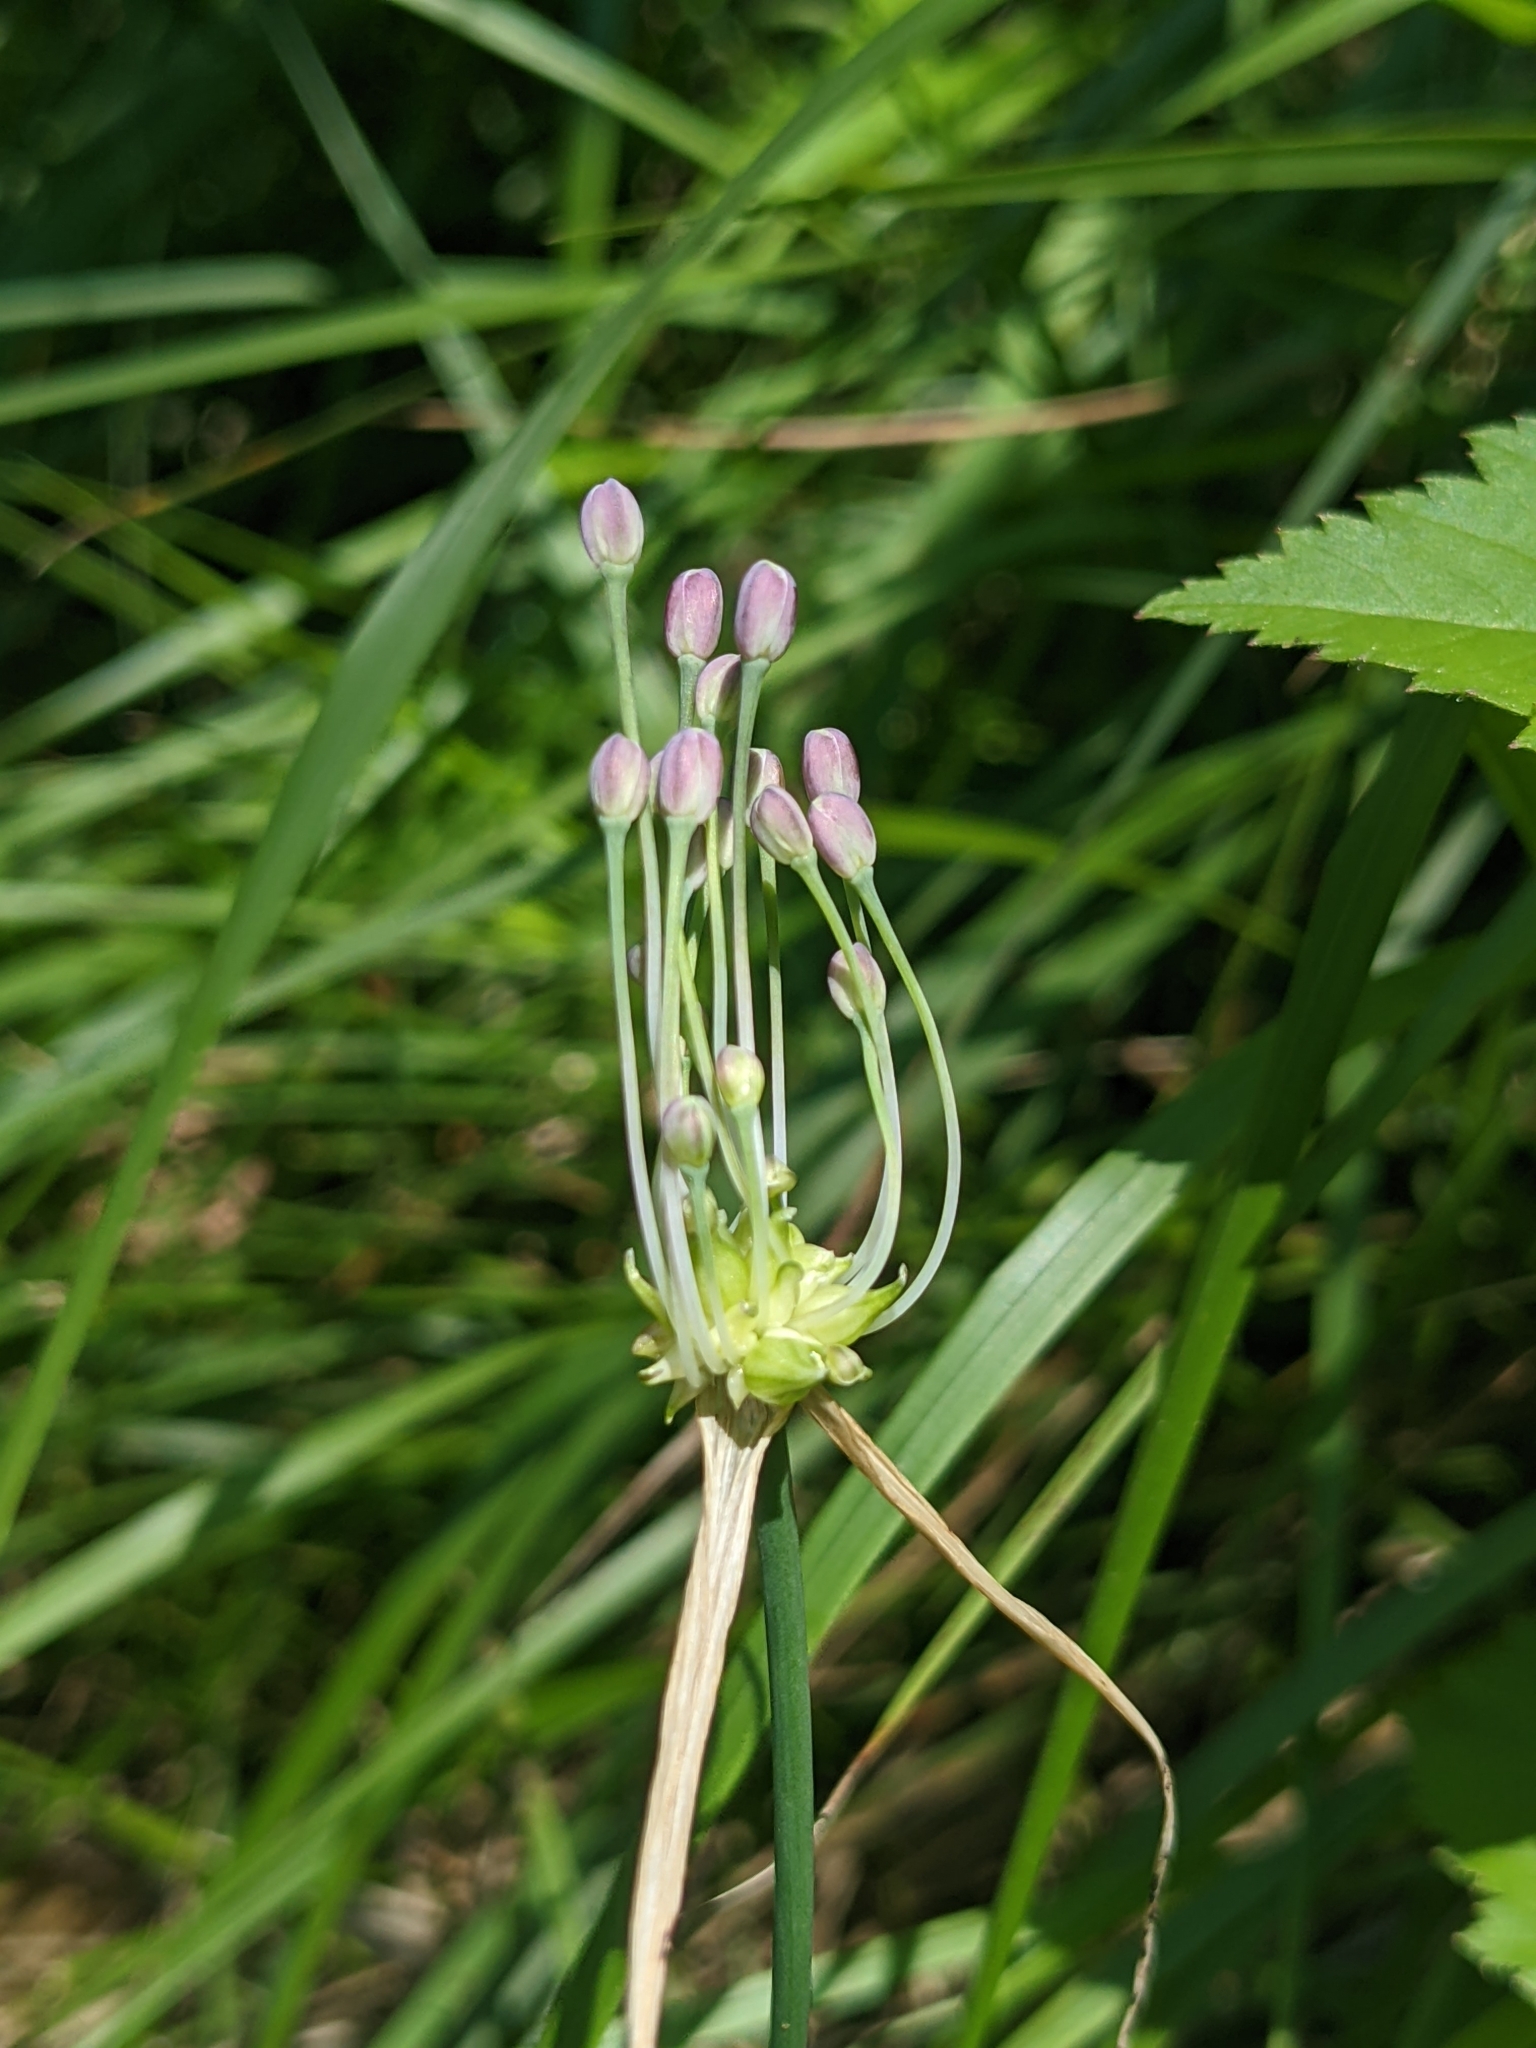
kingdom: Plantae
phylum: Tracheophyta
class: Liliopsida
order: Asparagales
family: Amaryllidaceae
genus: Allium
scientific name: Allium carinatum
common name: Keeled garlic
